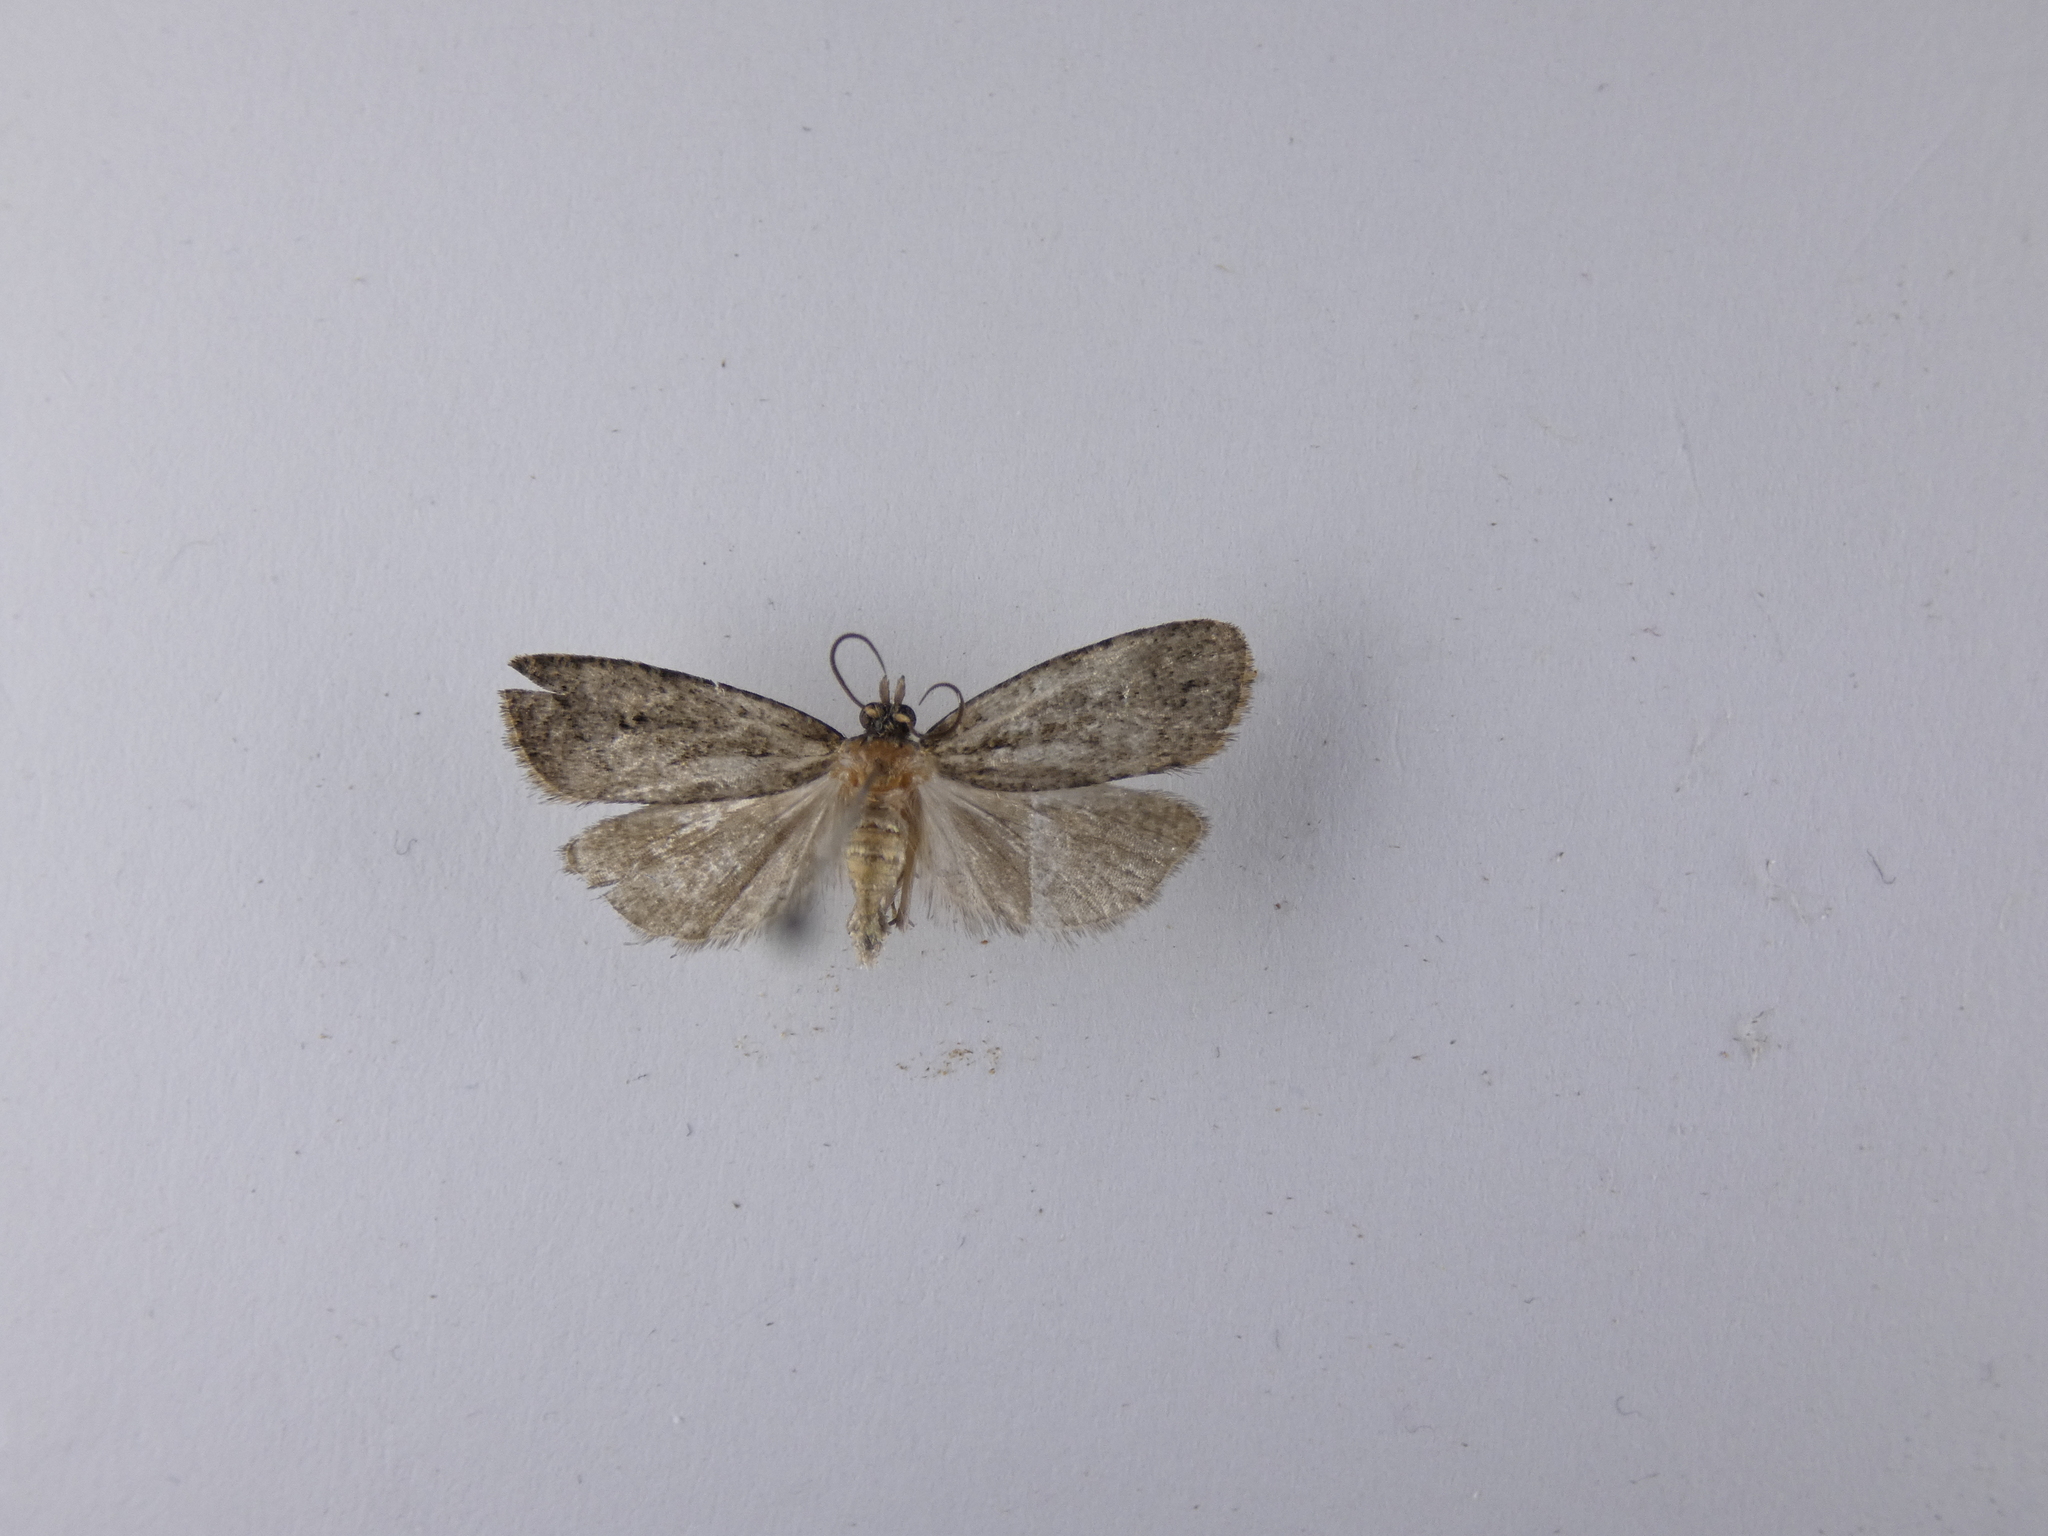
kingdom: Animalia
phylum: Arthropoda
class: Insecta
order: Lepidoptera
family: Tortricidae
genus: Cryptaspasma
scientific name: Cryptaspasma querula
